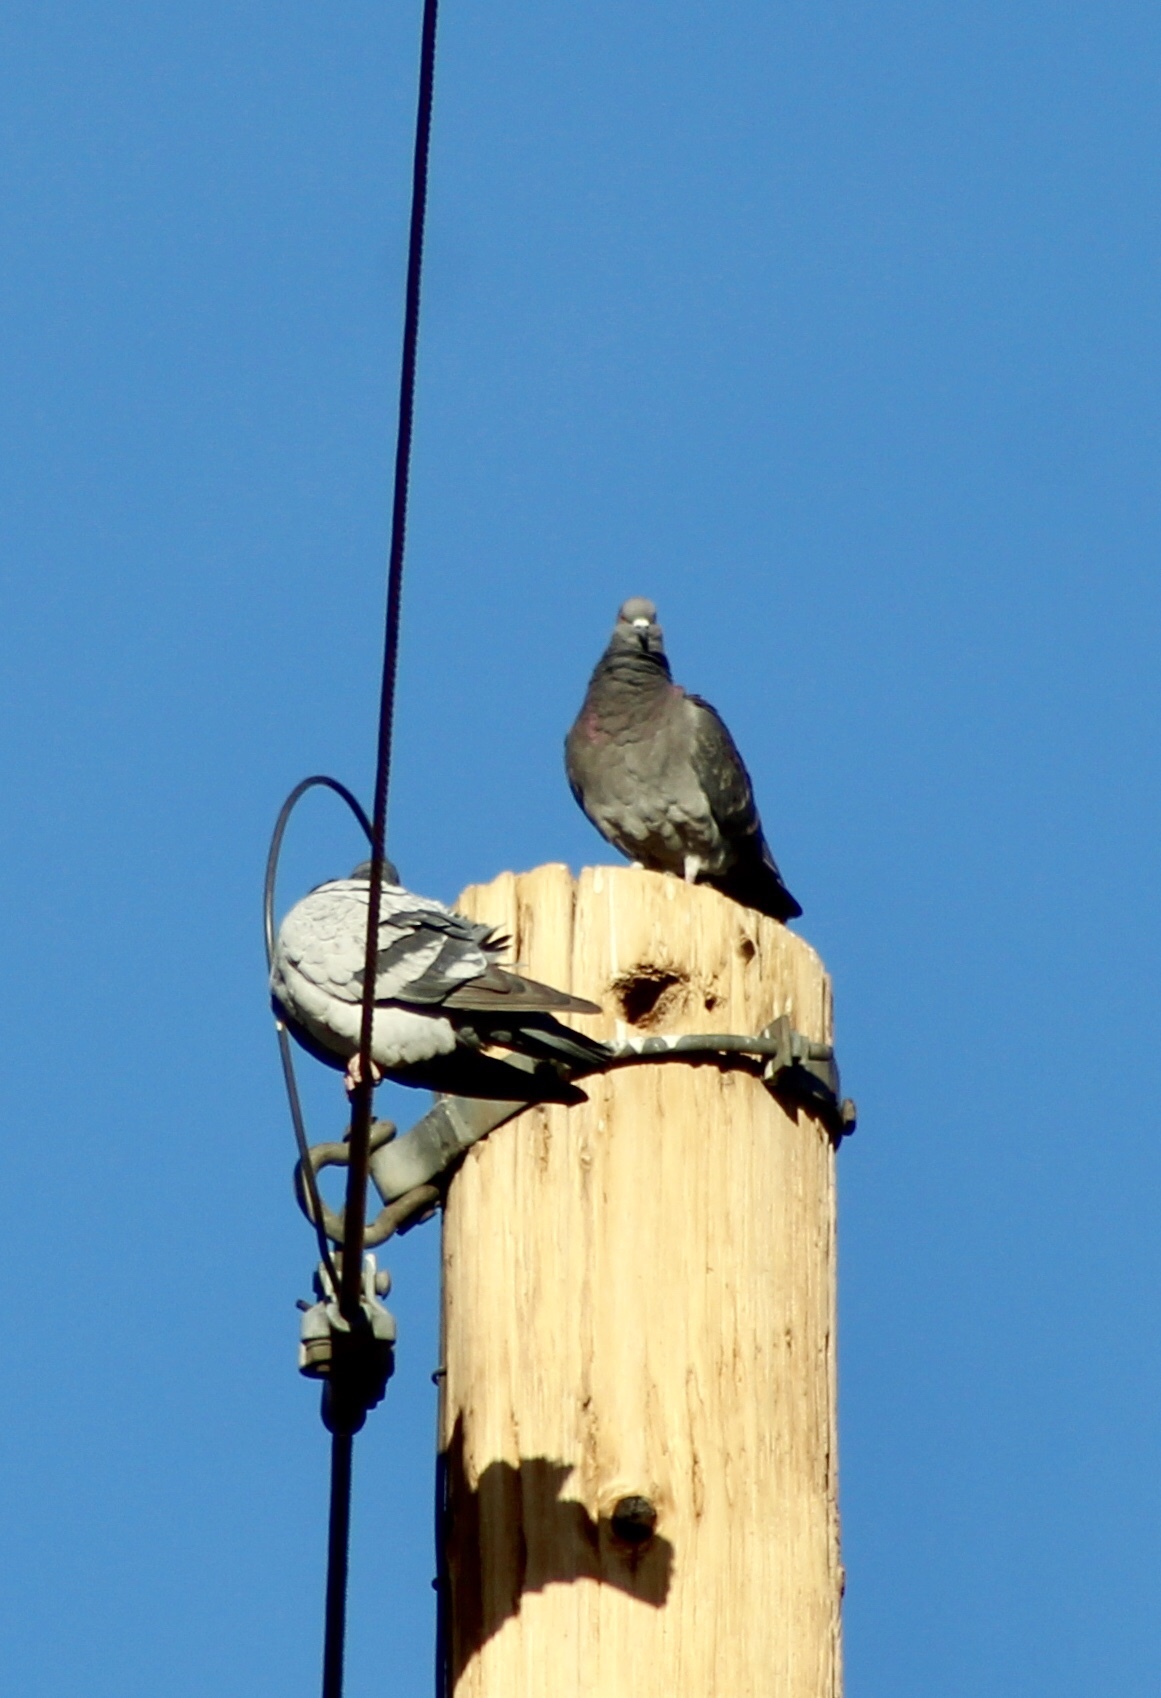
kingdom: Animalia
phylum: Chordata
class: Aves
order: Columbiformes
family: Columbidae
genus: Columba
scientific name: Columba livia
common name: Rock pigeon
